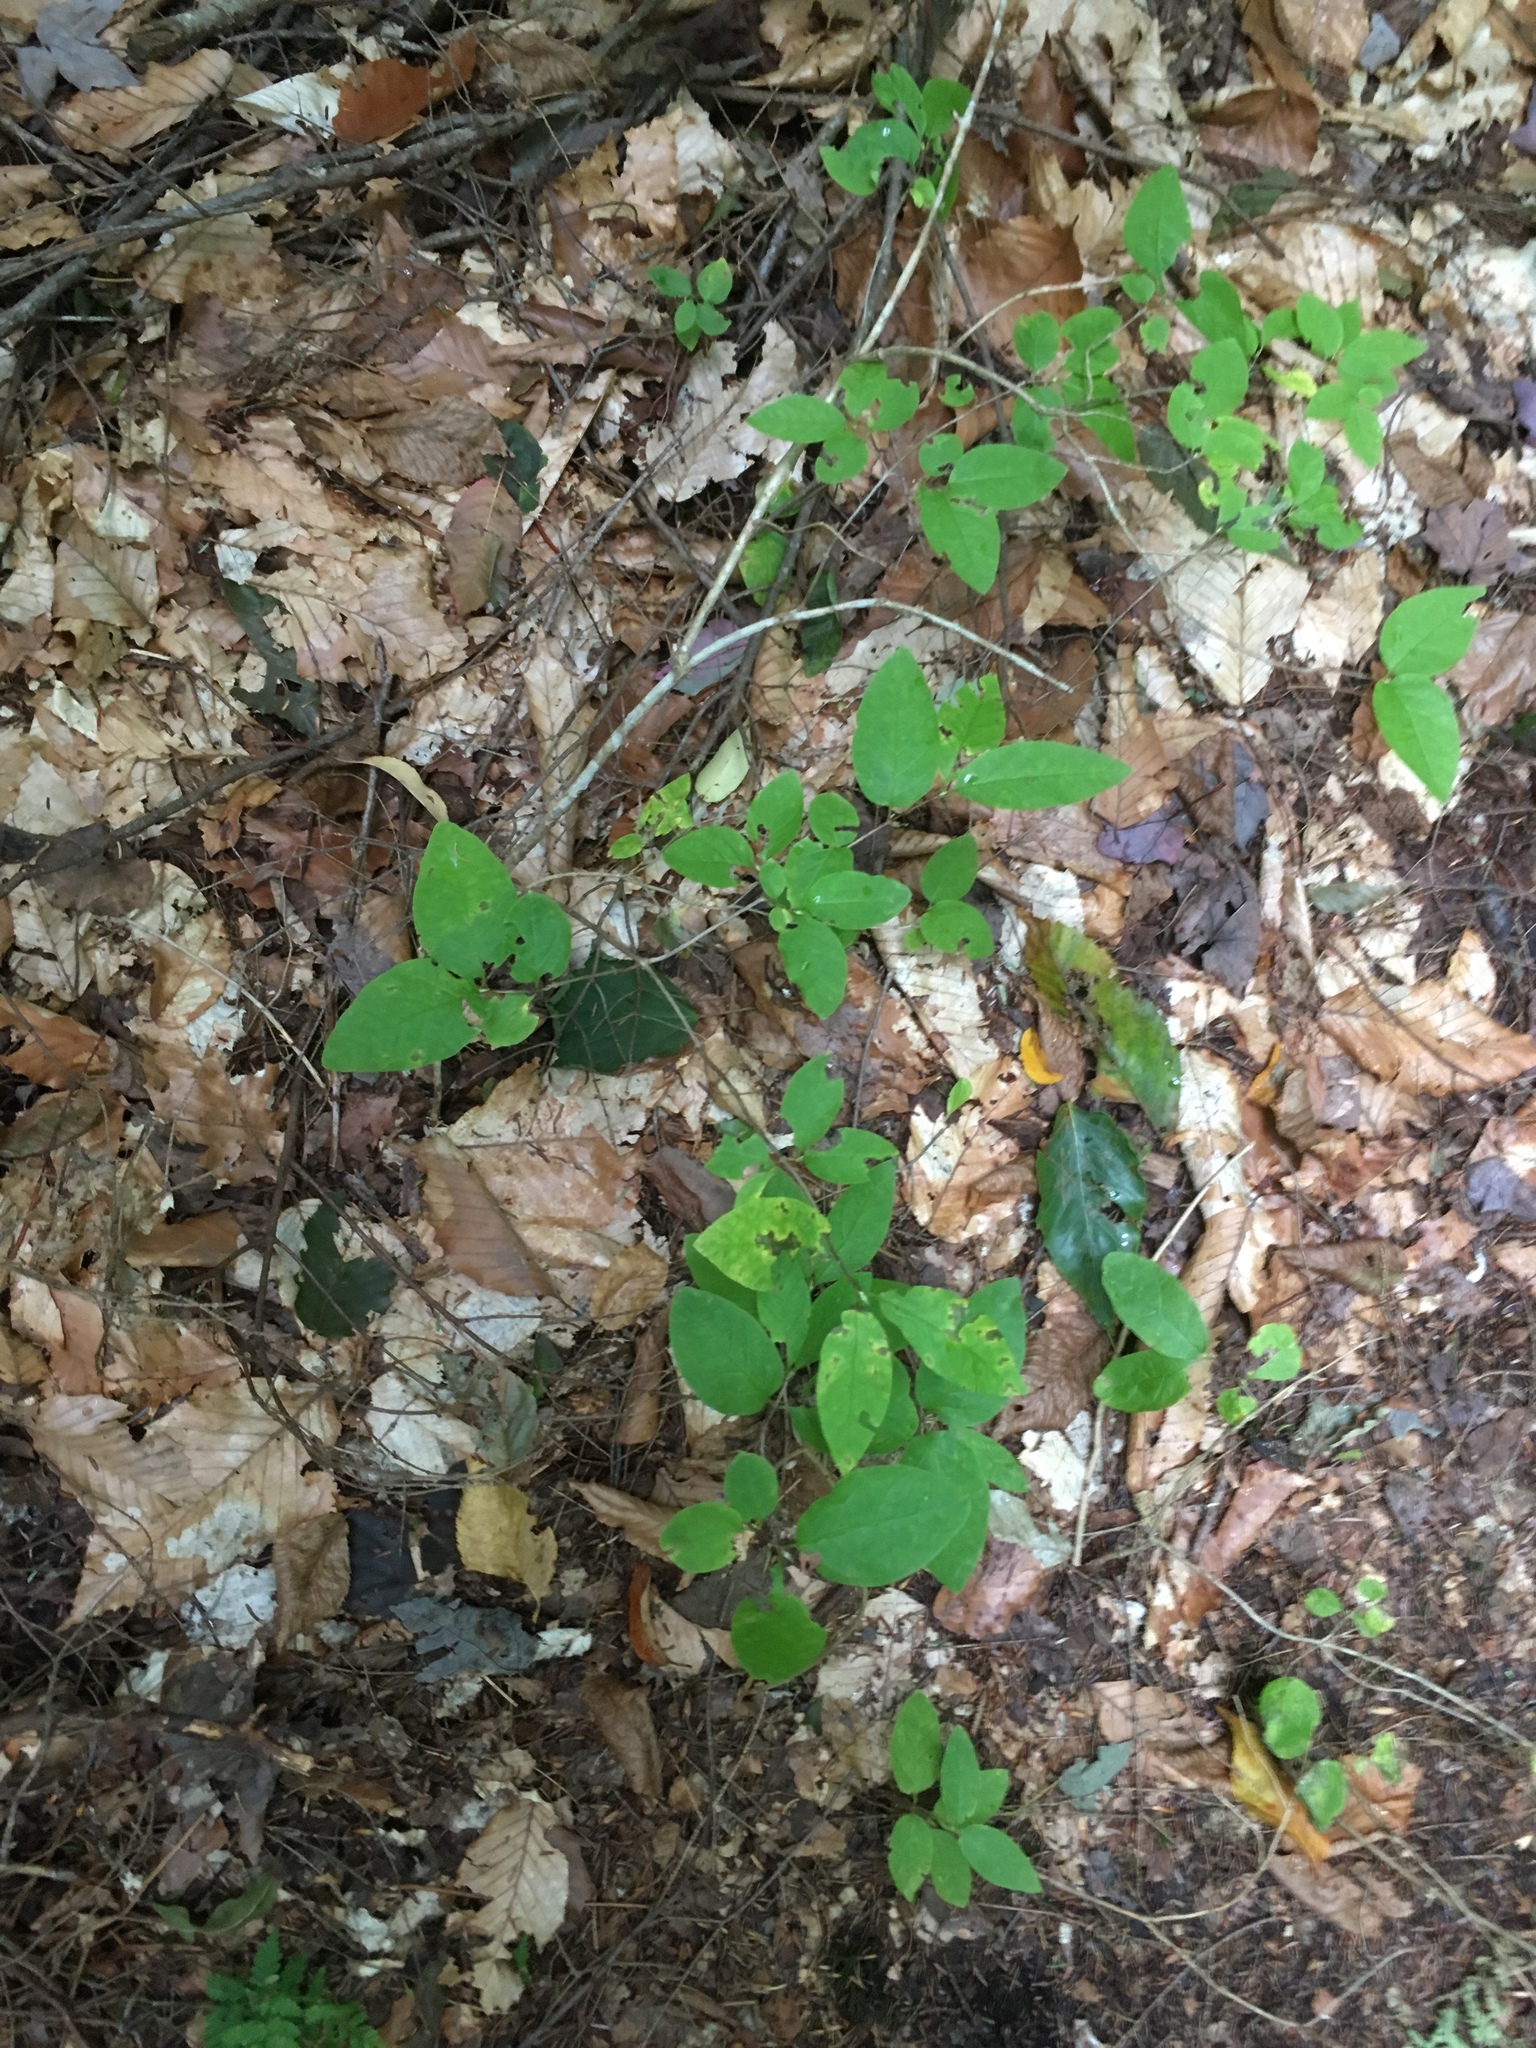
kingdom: Plantae
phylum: Tracheophyta
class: Magnoliopsida
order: Dipsacales
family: Caprifoliaceae
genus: Lonicera
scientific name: Lonicera canadensis
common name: American fly-honeysuckle
